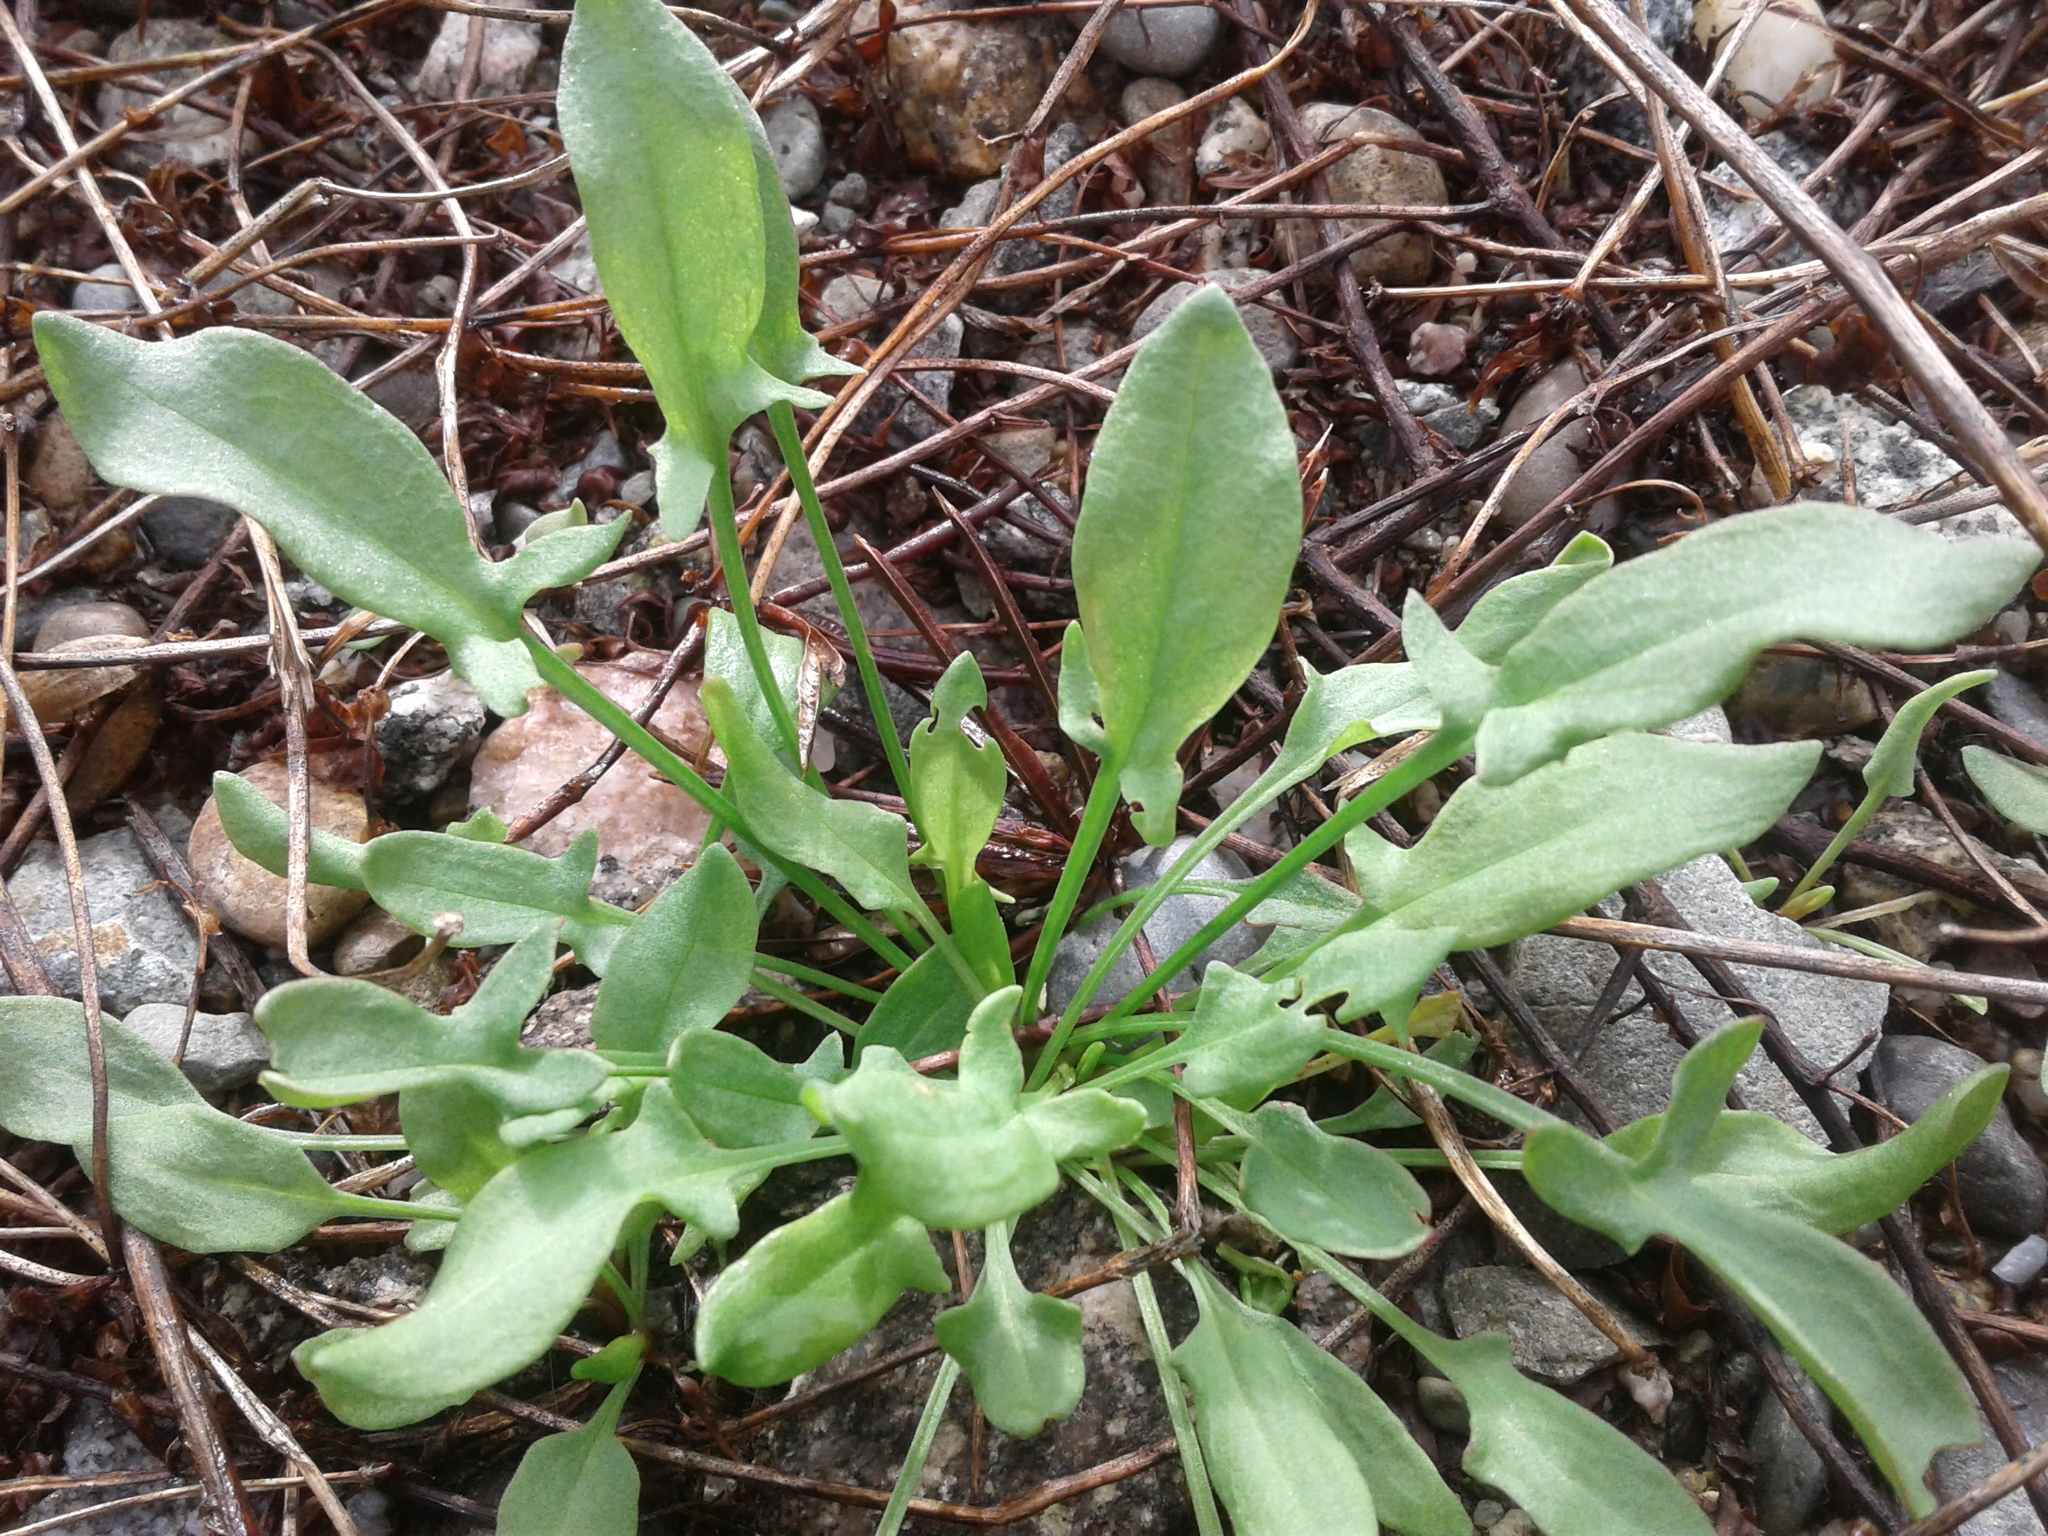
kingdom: Plantae
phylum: Tracheophyta
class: Magnoliopsida
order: Caryophyllales
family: Polygonaceae
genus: Rumex
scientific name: Rumex acetosella
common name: Common sheep sorrel
